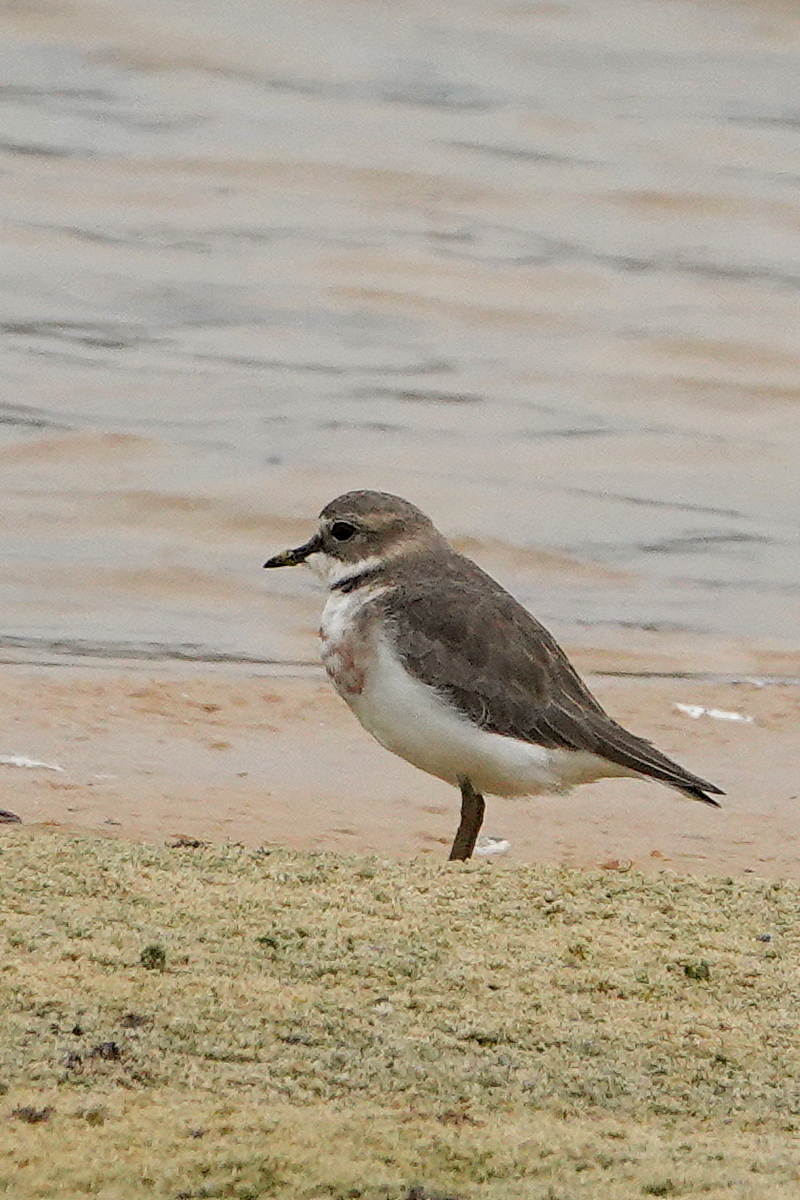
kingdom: Animalia
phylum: Chordata
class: Aves
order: Charadriiformes
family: Charadriidae
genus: Anarhynchus
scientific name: Anarhynchus
